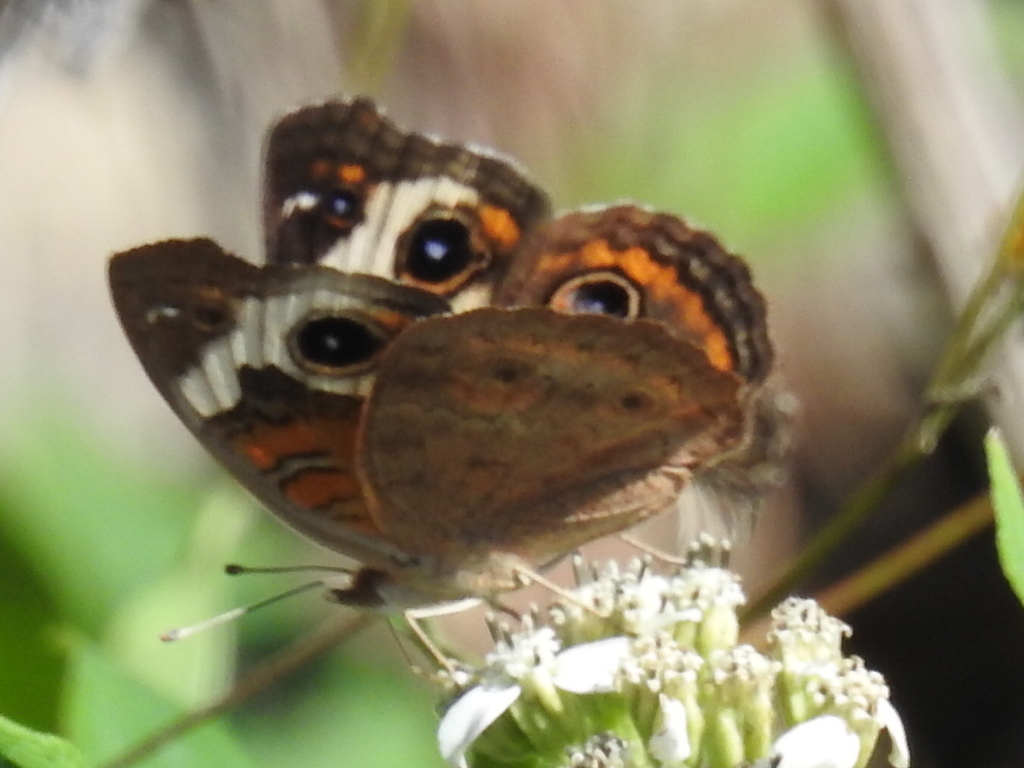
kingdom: Animalia
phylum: Arthropoda
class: Insecta
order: Lepidoptera
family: Nymphalidae
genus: Junonia
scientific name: Junonia coenia
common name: Common buckeye
